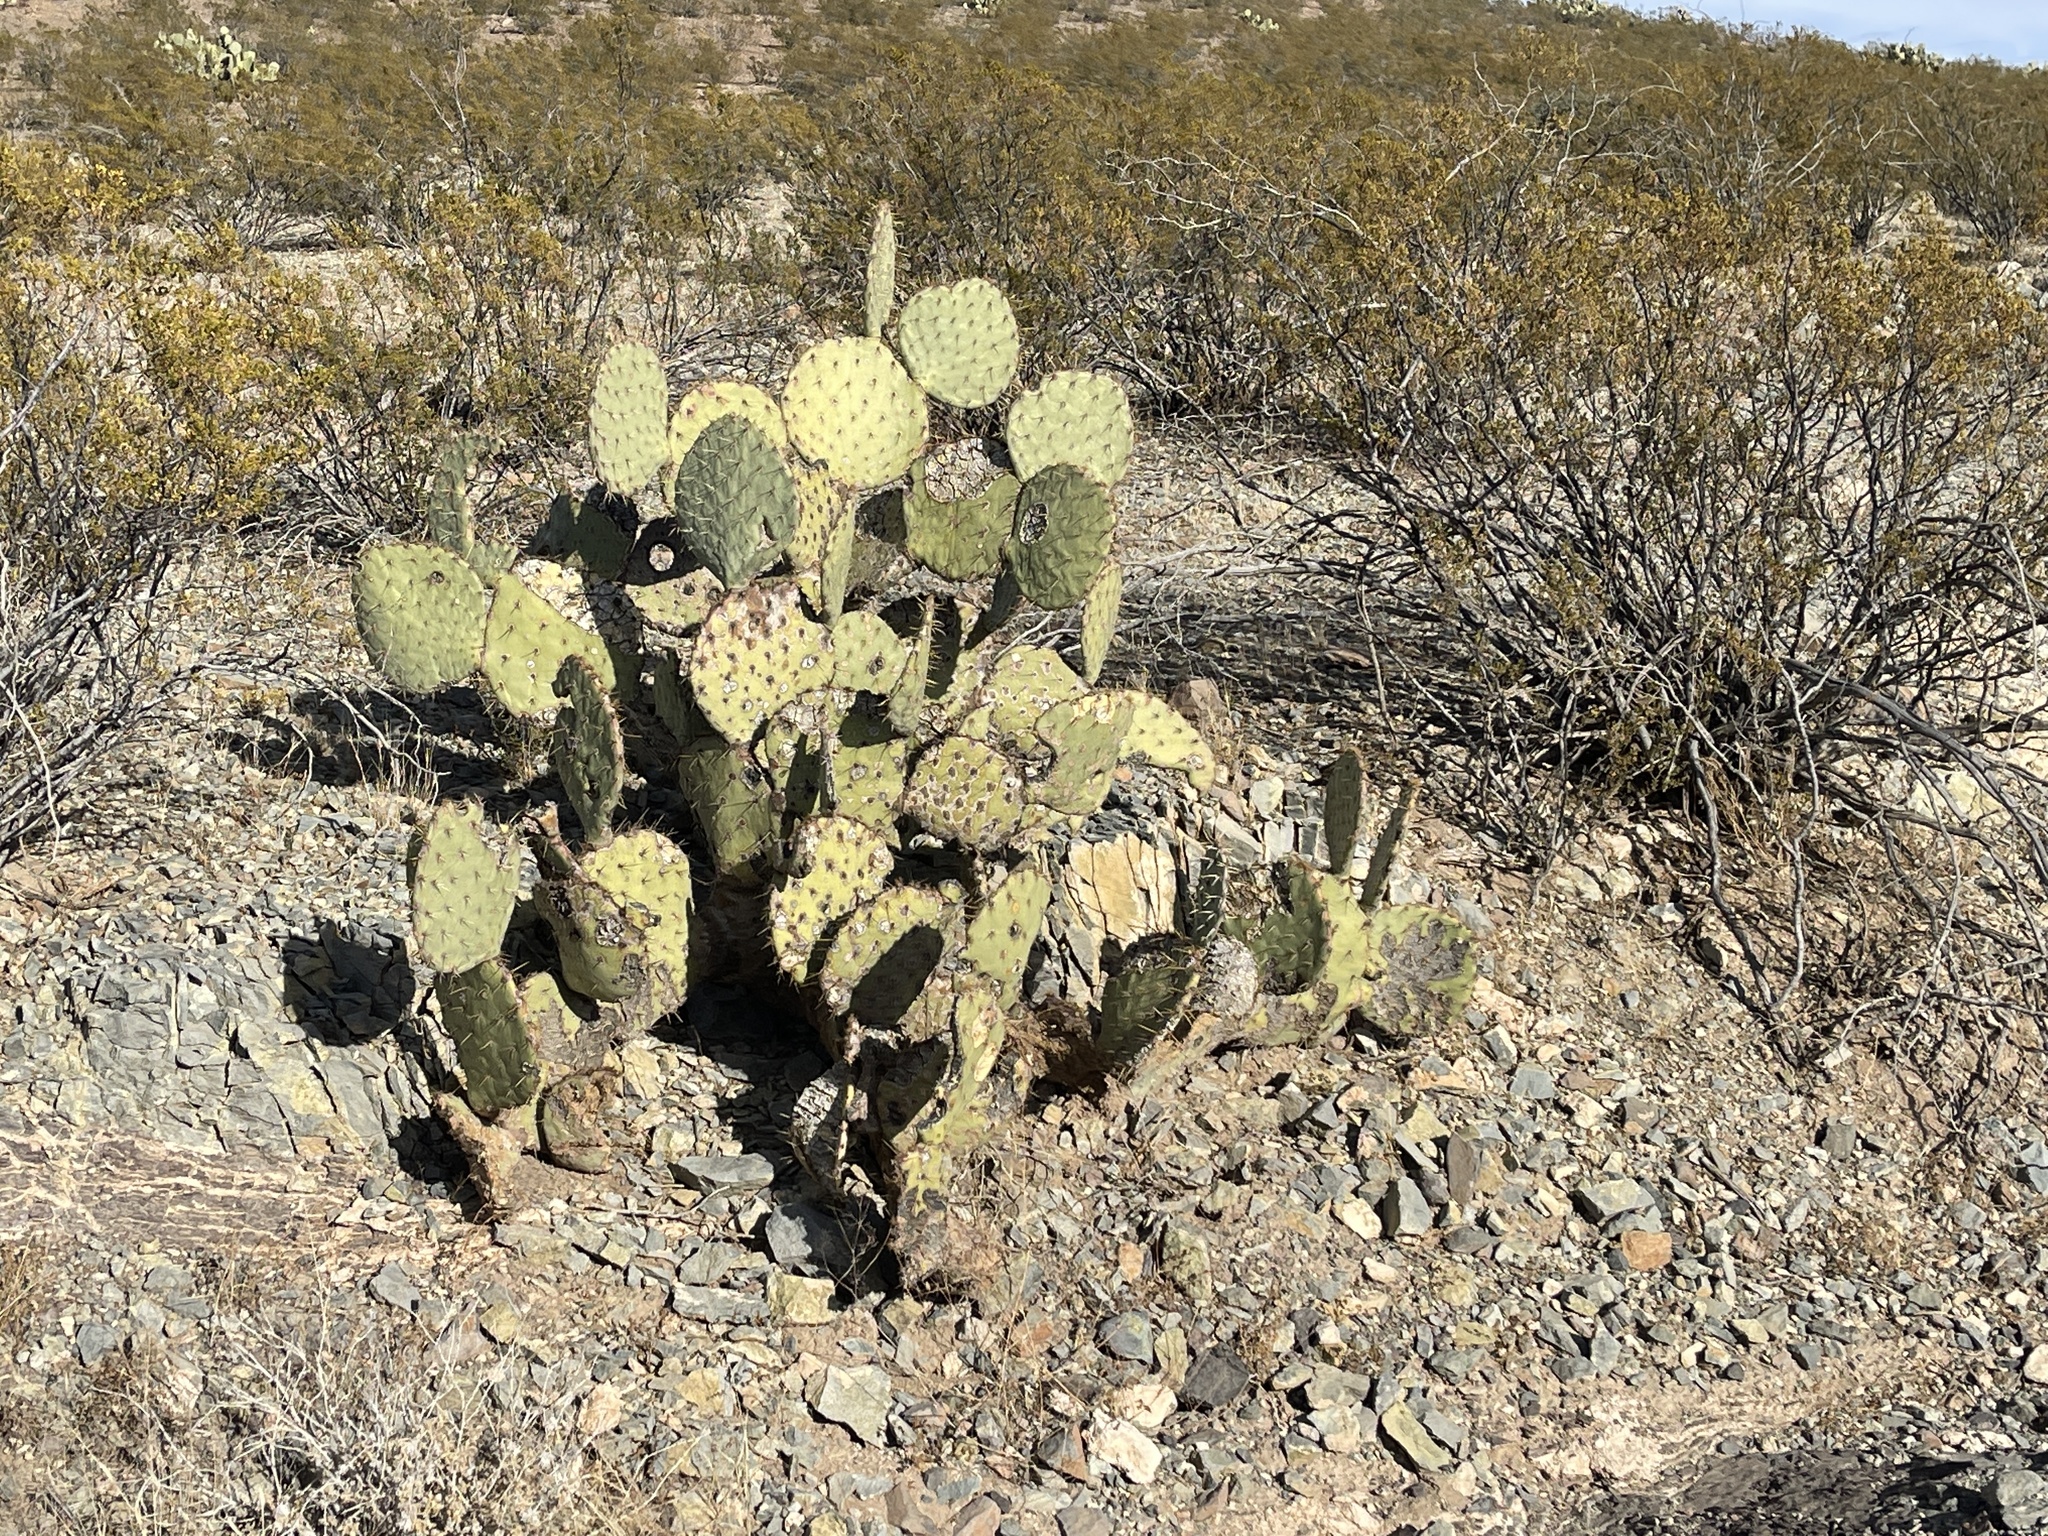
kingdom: Plantae
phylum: Tracheophyta
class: Magnoliopsida
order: Caryophyllales
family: Cactaceae
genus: Opuntia
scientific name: Opuntia engelmannii
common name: Cactus-apple
